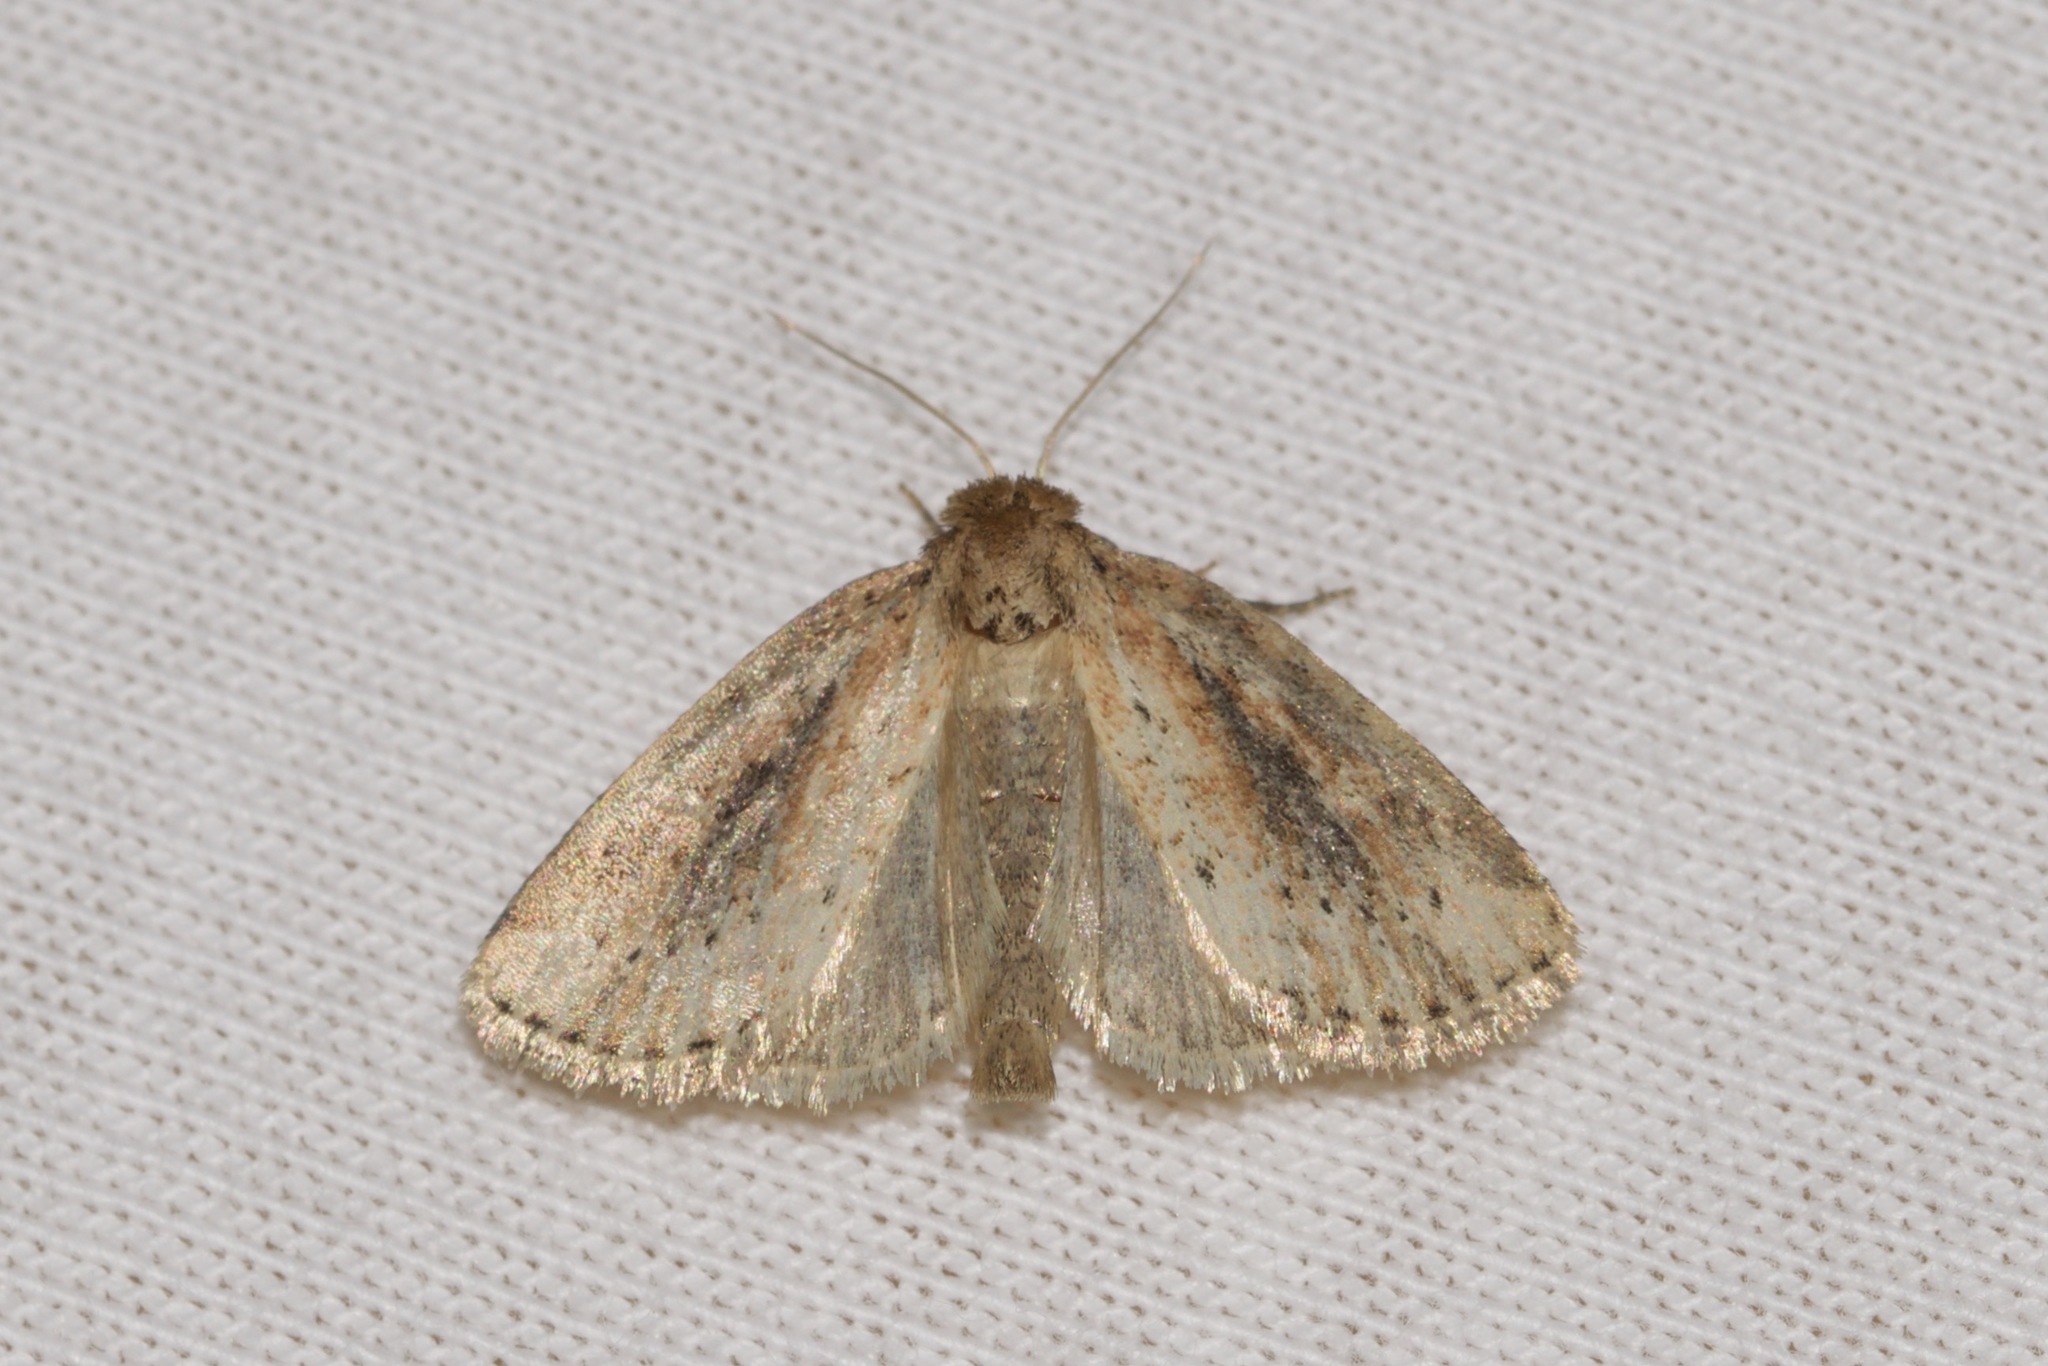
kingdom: Animalia
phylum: Arthropoda
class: Insecta
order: Lepidoptera
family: Noctuidae
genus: Photedes
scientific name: Photedes panatela
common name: Northern cordgrass borer moth
